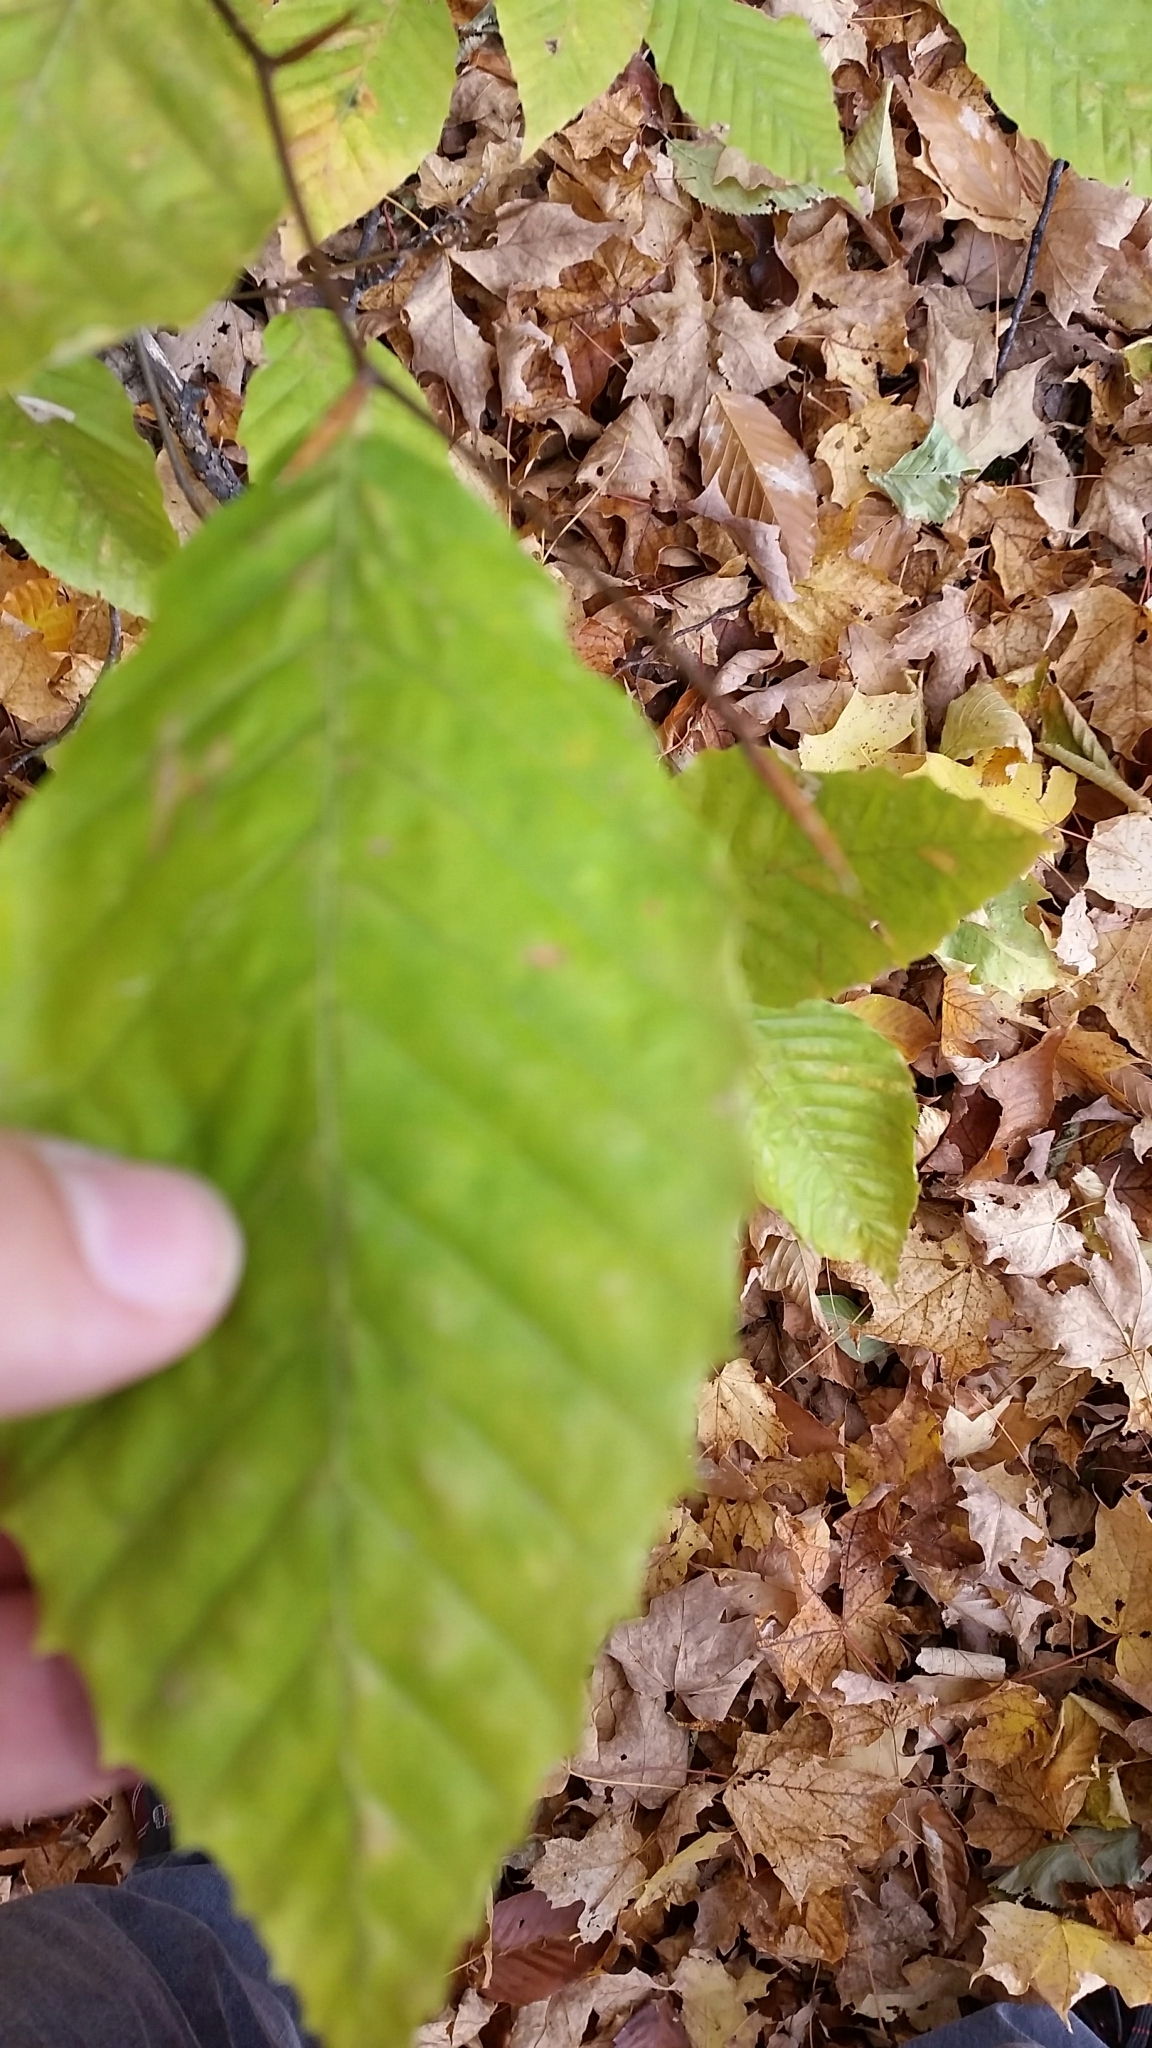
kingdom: Plantae
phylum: Tracheophyta
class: Magnoliopsida
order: Fagales
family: Fagaceae
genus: Fagus
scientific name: Fagus grandifolia
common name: American beech
